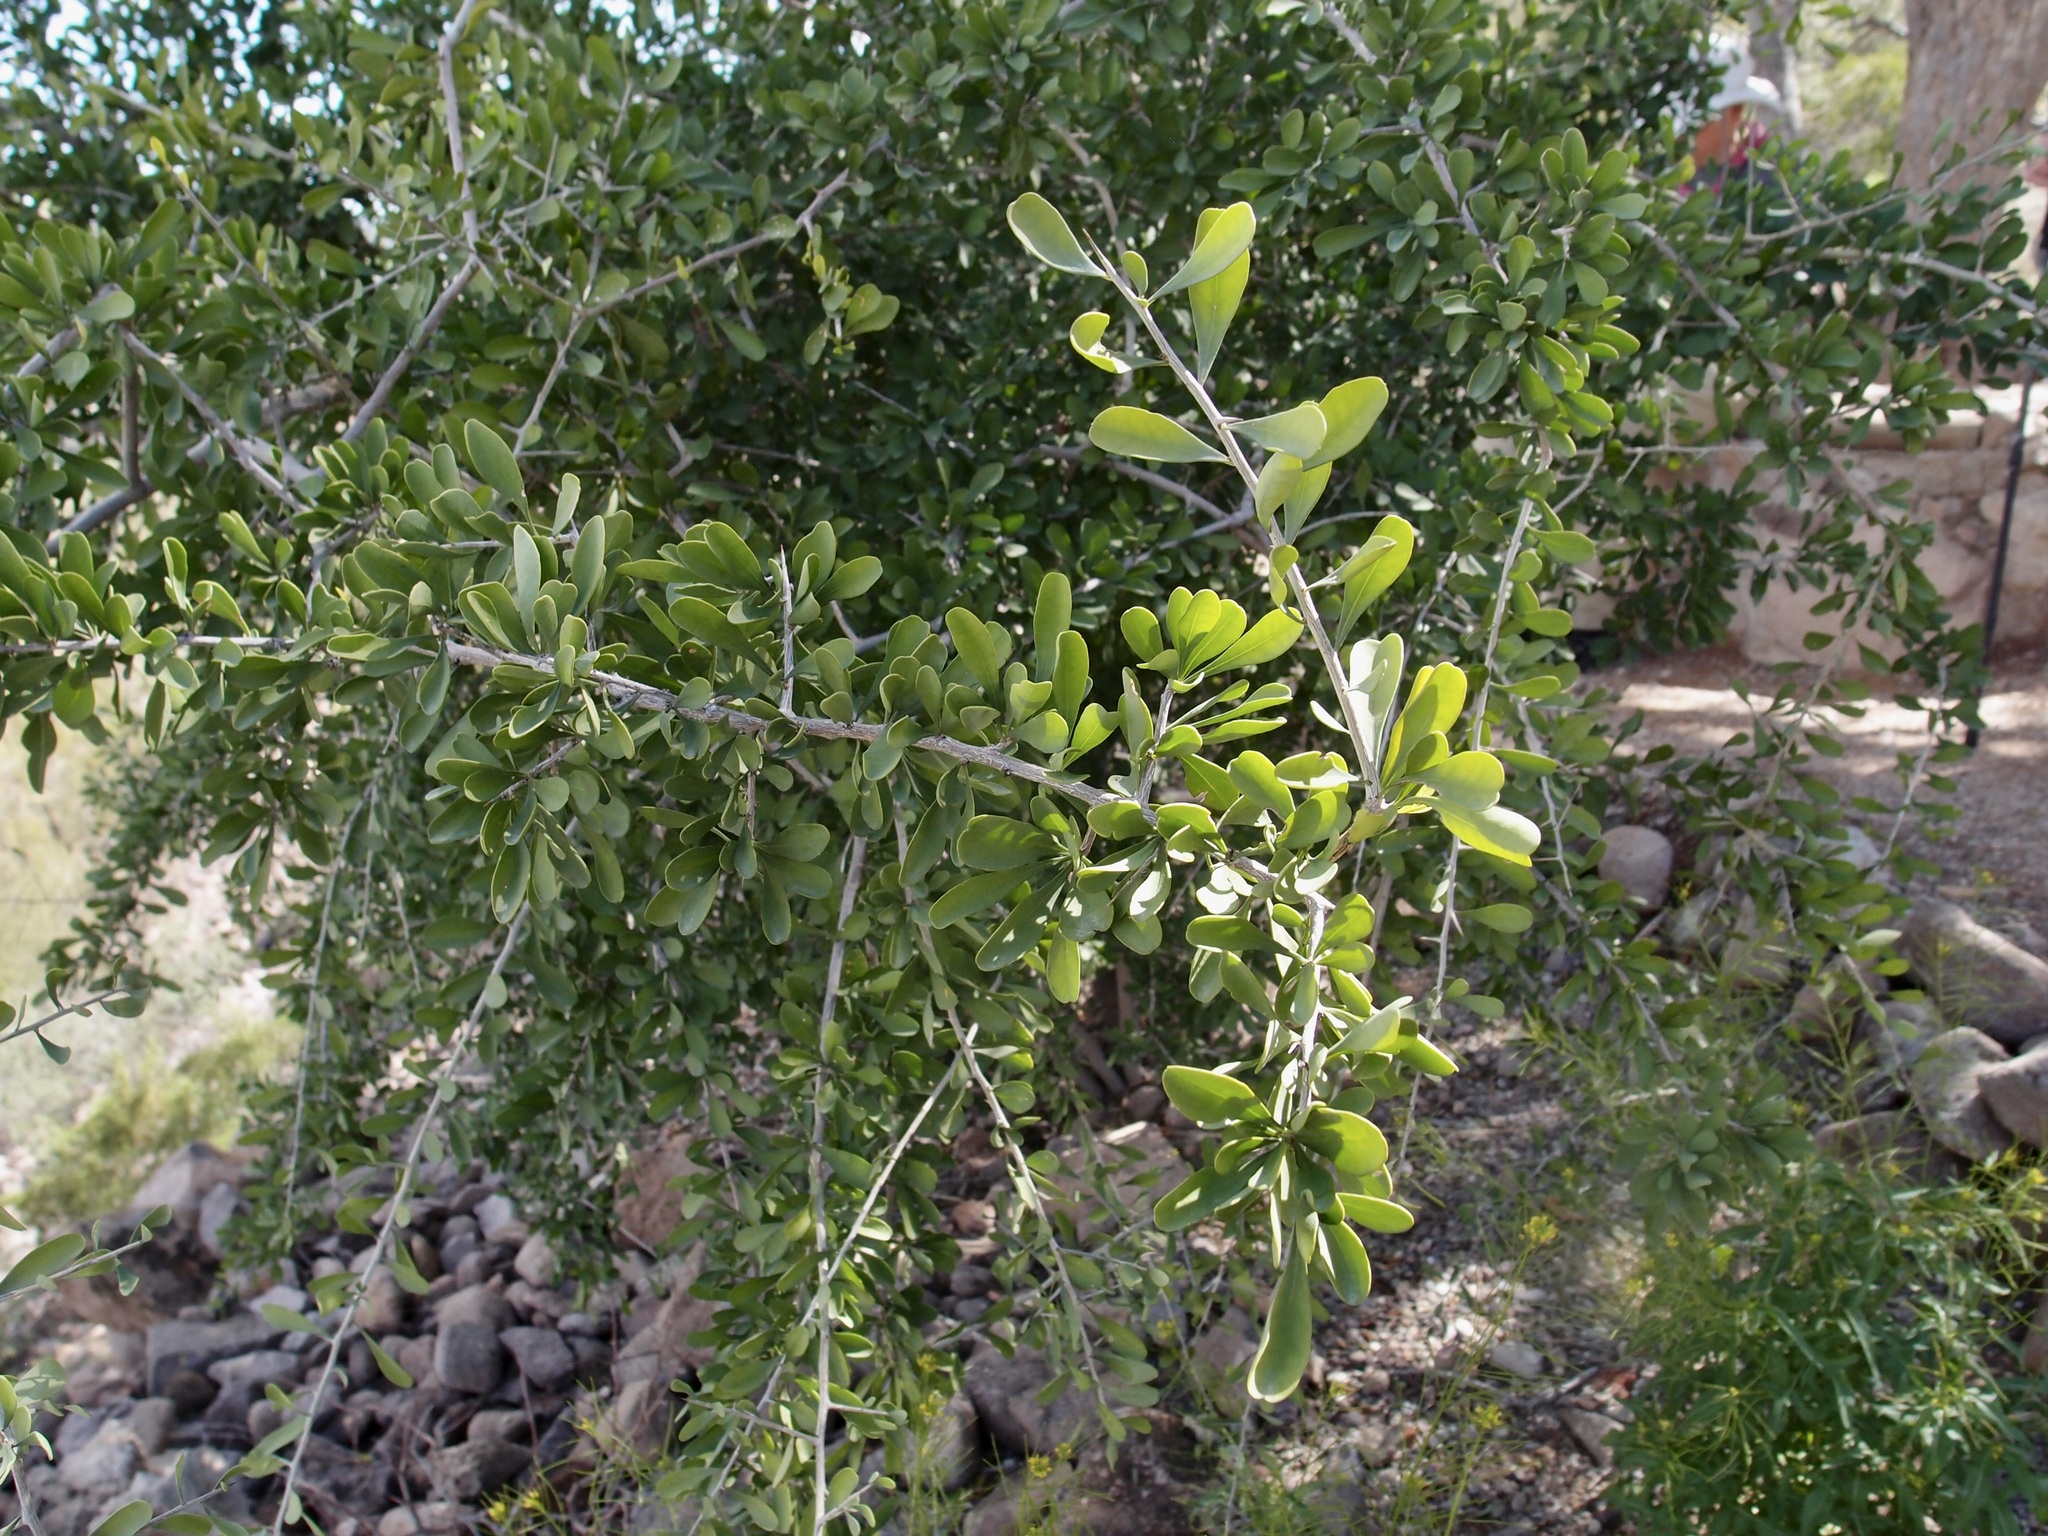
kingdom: Plantae
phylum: Tracheophyta
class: Magnoliopsida
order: Caryophyllales
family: Achatocarpaceae
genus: Phaulothamnus
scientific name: Phaulothamnus spinescens
